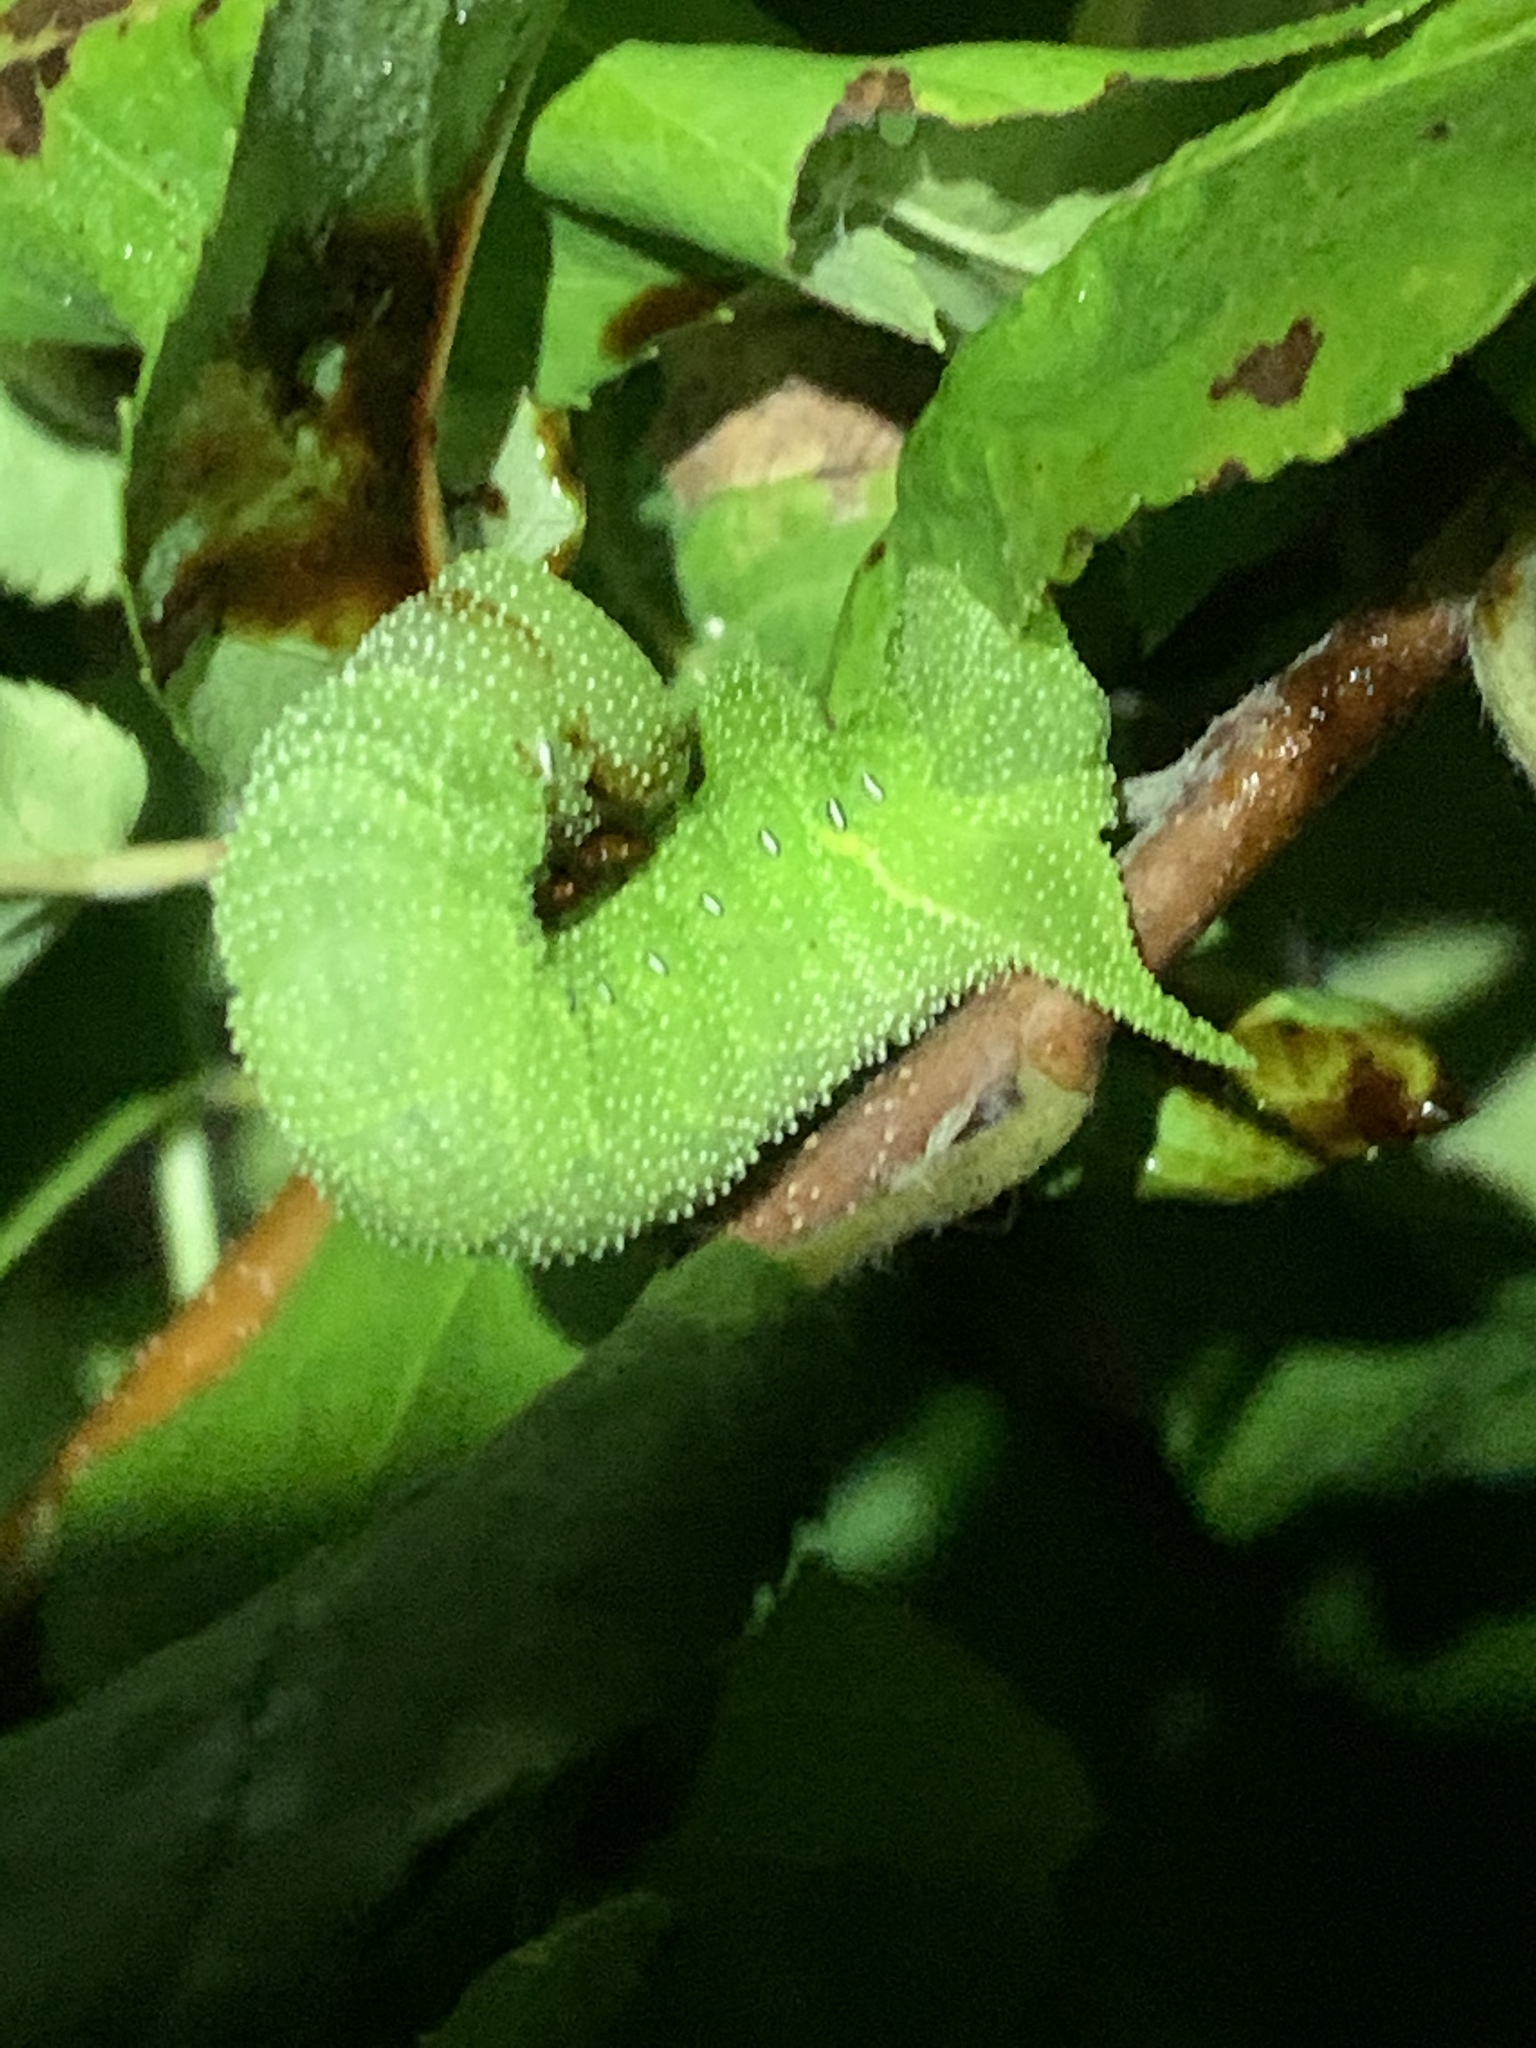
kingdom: Animalia
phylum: Arthropoda
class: Insecta
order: Lepidoptera
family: Sphingidae
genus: Paonias
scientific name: Paonias excaecata
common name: Blind-eyed sphinx
